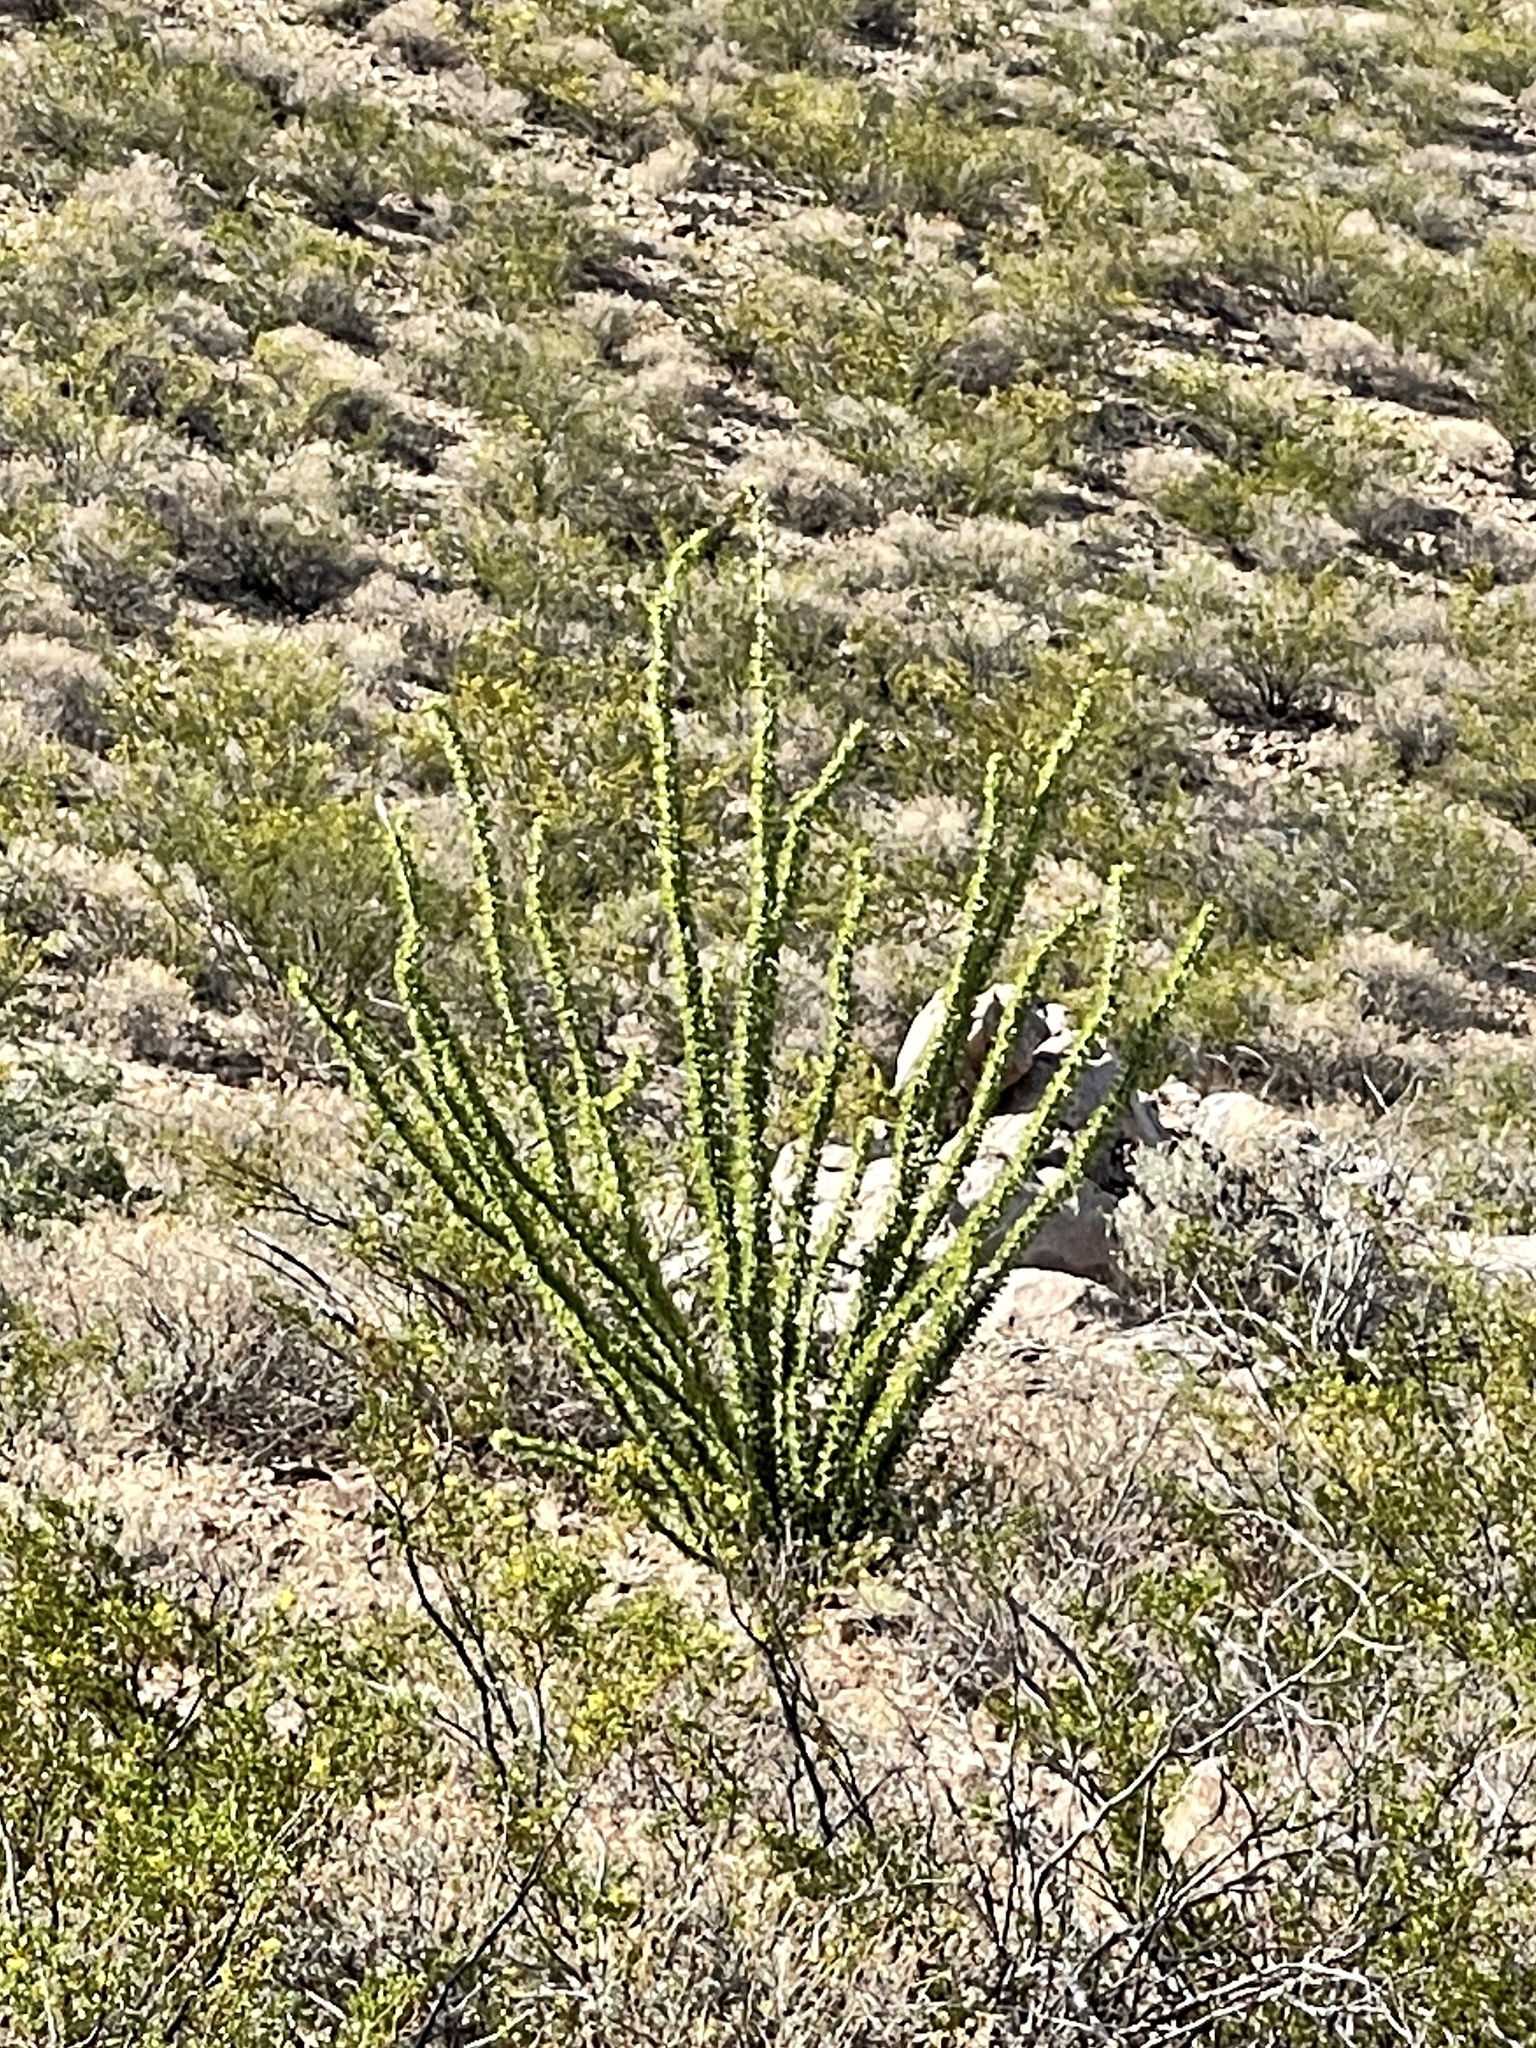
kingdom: Plantae
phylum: Tracheophyta
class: Magnoliopsida
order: Ericales
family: Fouquieriaceae
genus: Fouquieria
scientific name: Fouquieria splendens
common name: Vine-cactus
